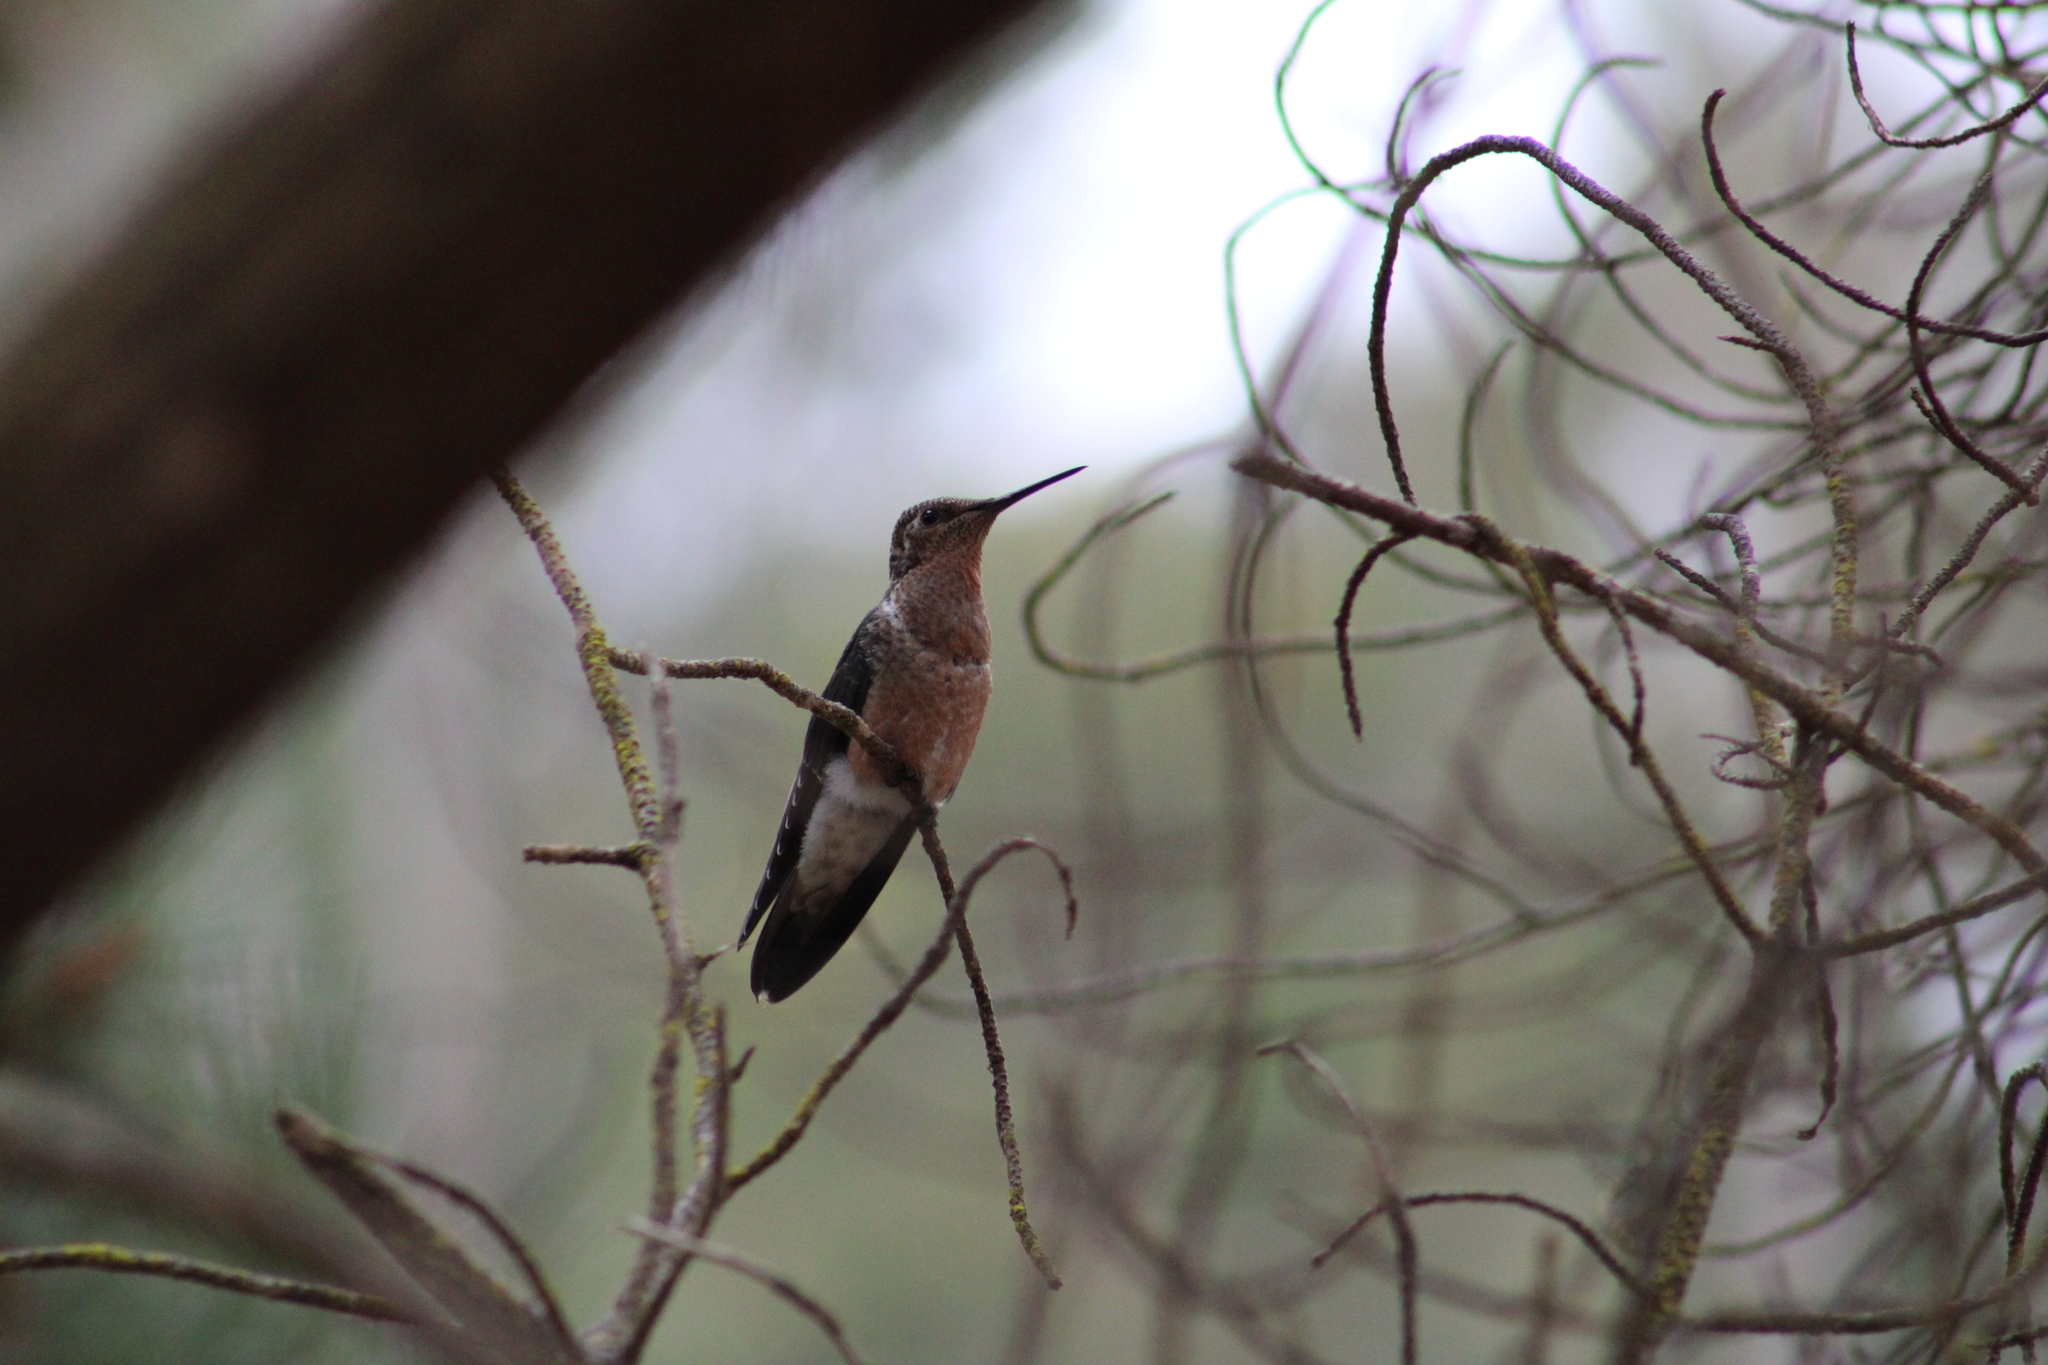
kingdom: Animalia
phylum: Chordata
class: Aves
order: Apodiformes
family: Trochilidae
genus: Patagona
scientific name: Patagona gigas
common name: Giant hummingbird
